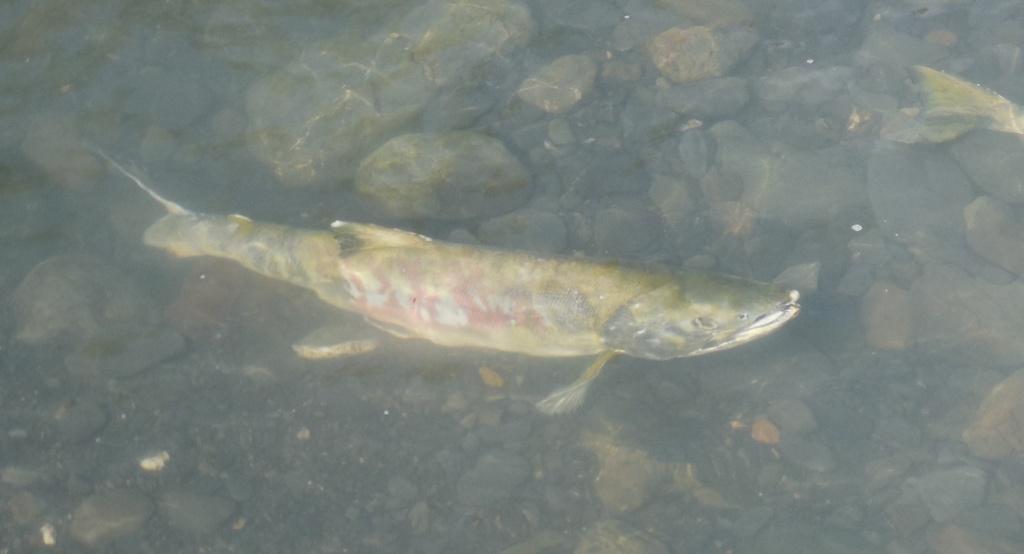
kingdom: Animalia
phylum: Chordata
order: Salmoniformes
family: Salmonidae
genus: Oncorhynchus
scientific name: Oncorhynchus keta
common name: Chum salmon
